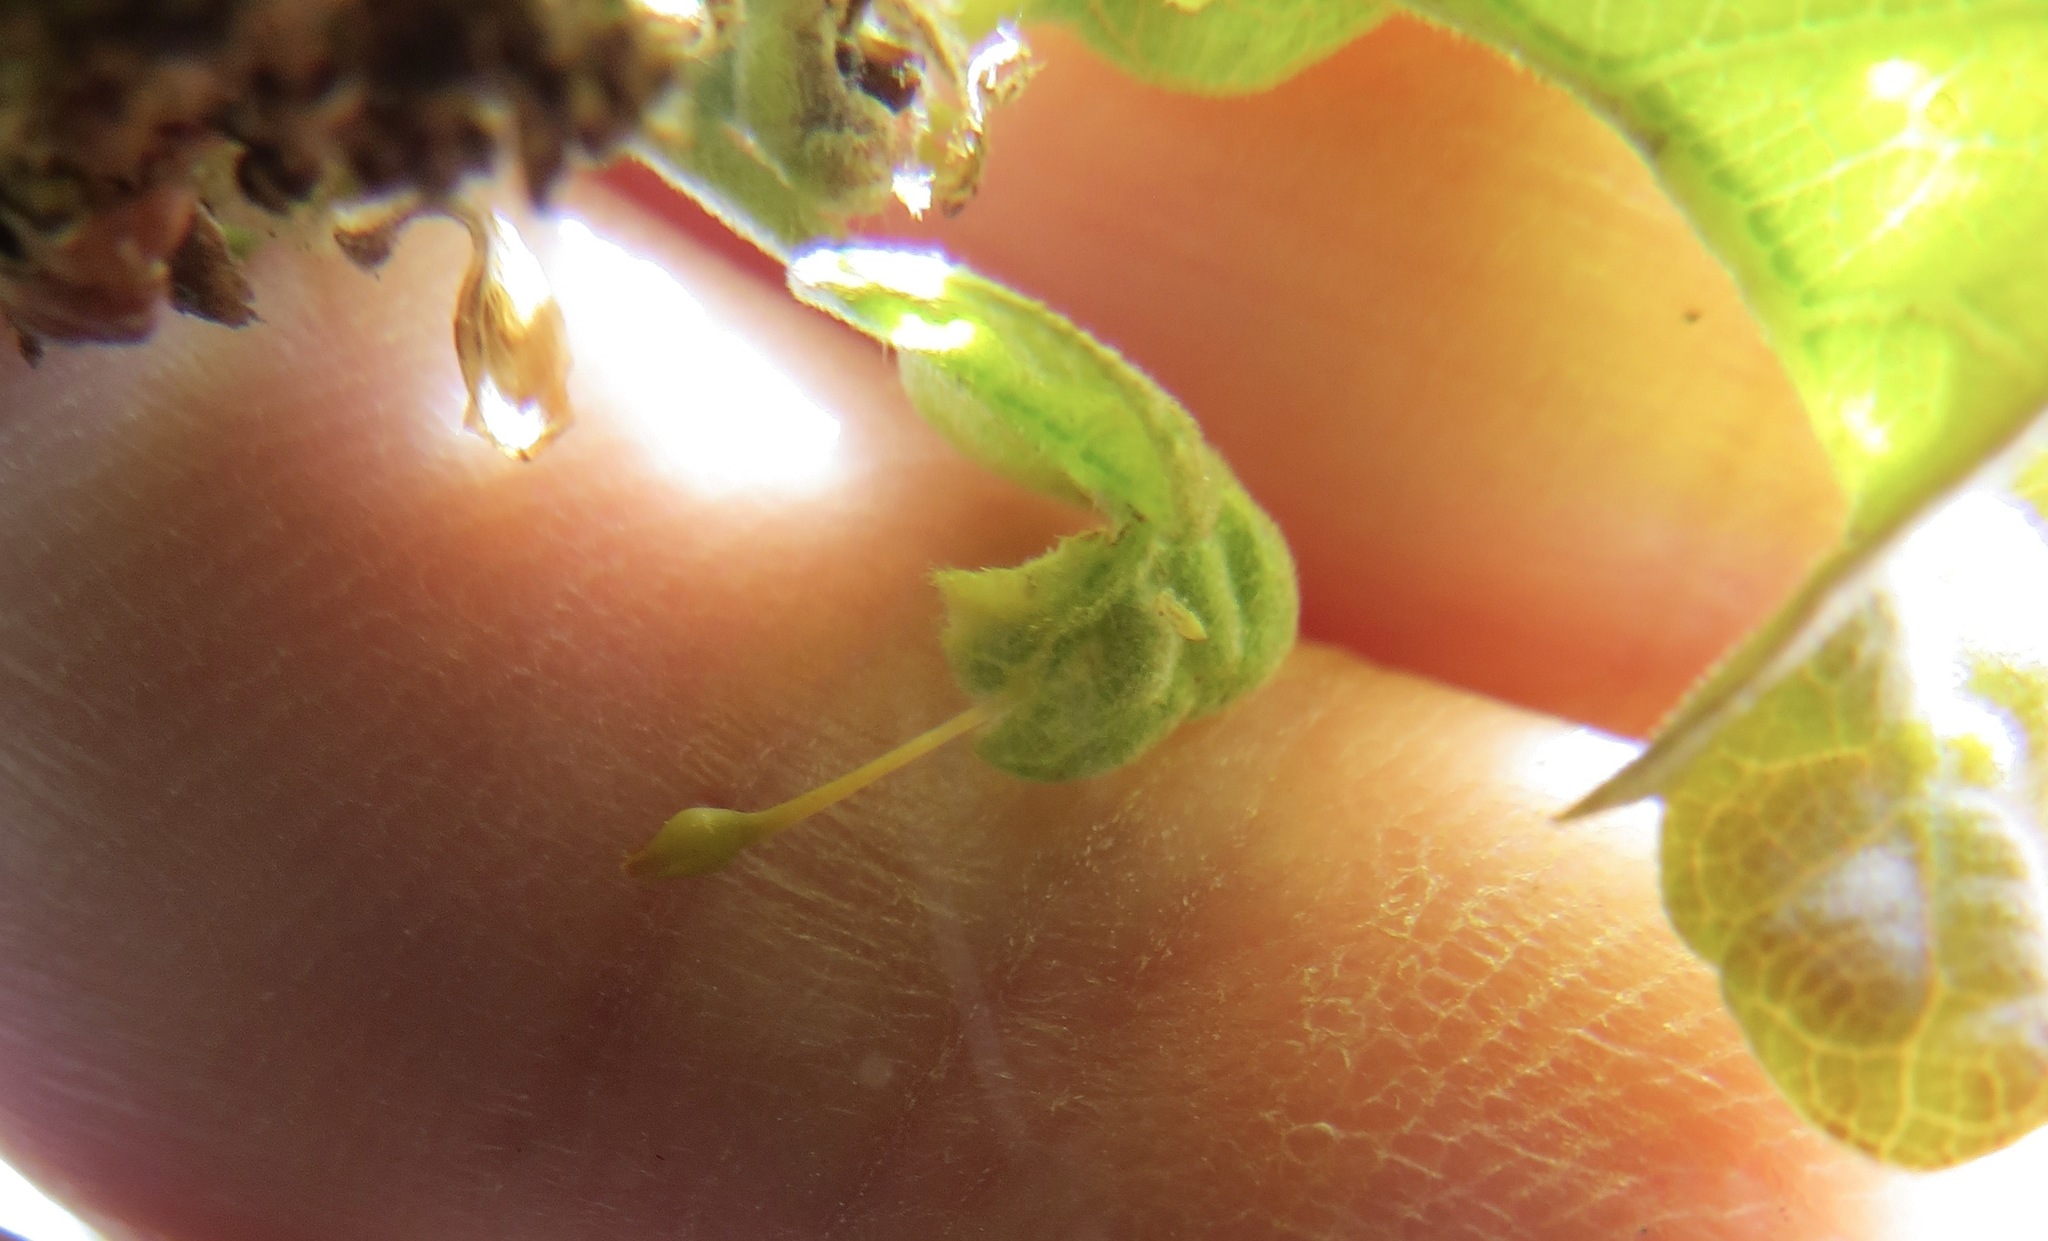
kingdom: Animalia
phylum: Arthropoda
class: Insecta
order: Hymenoptera
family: Cynipidae
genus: Andricus
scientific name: Andricus
